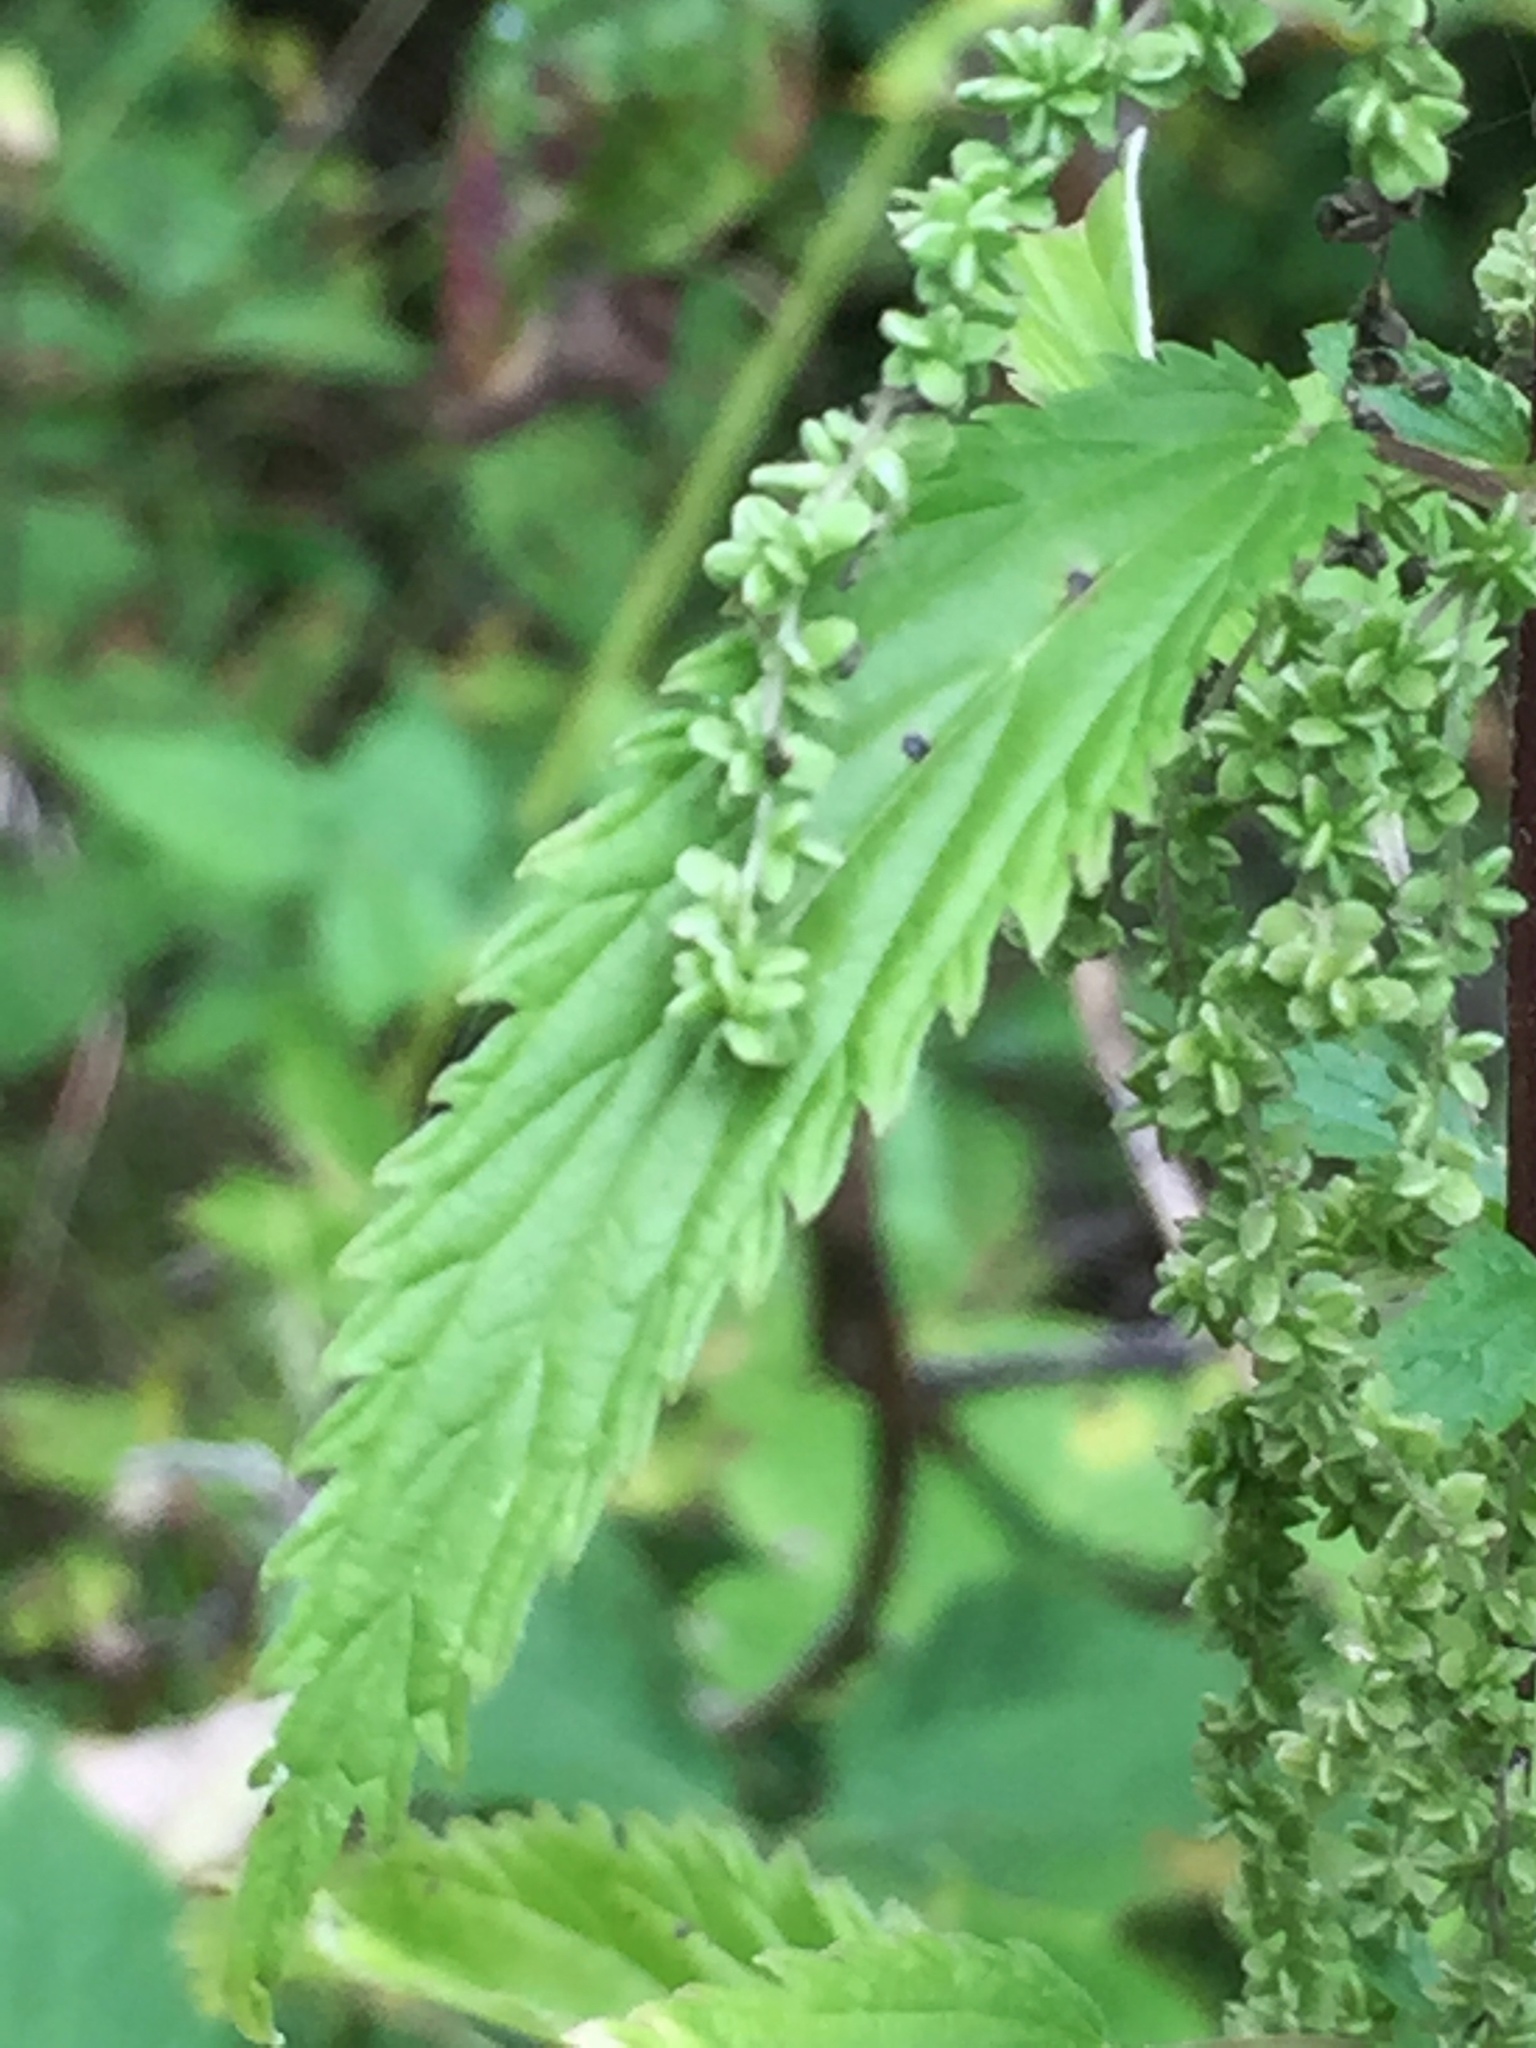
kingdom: Plantae
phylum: Tracheophyta
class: Magnoliopsida
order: Rosales
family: Urticaceae
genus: Urtica
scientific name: Urtica gracilis
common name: Slender stinging nettle
